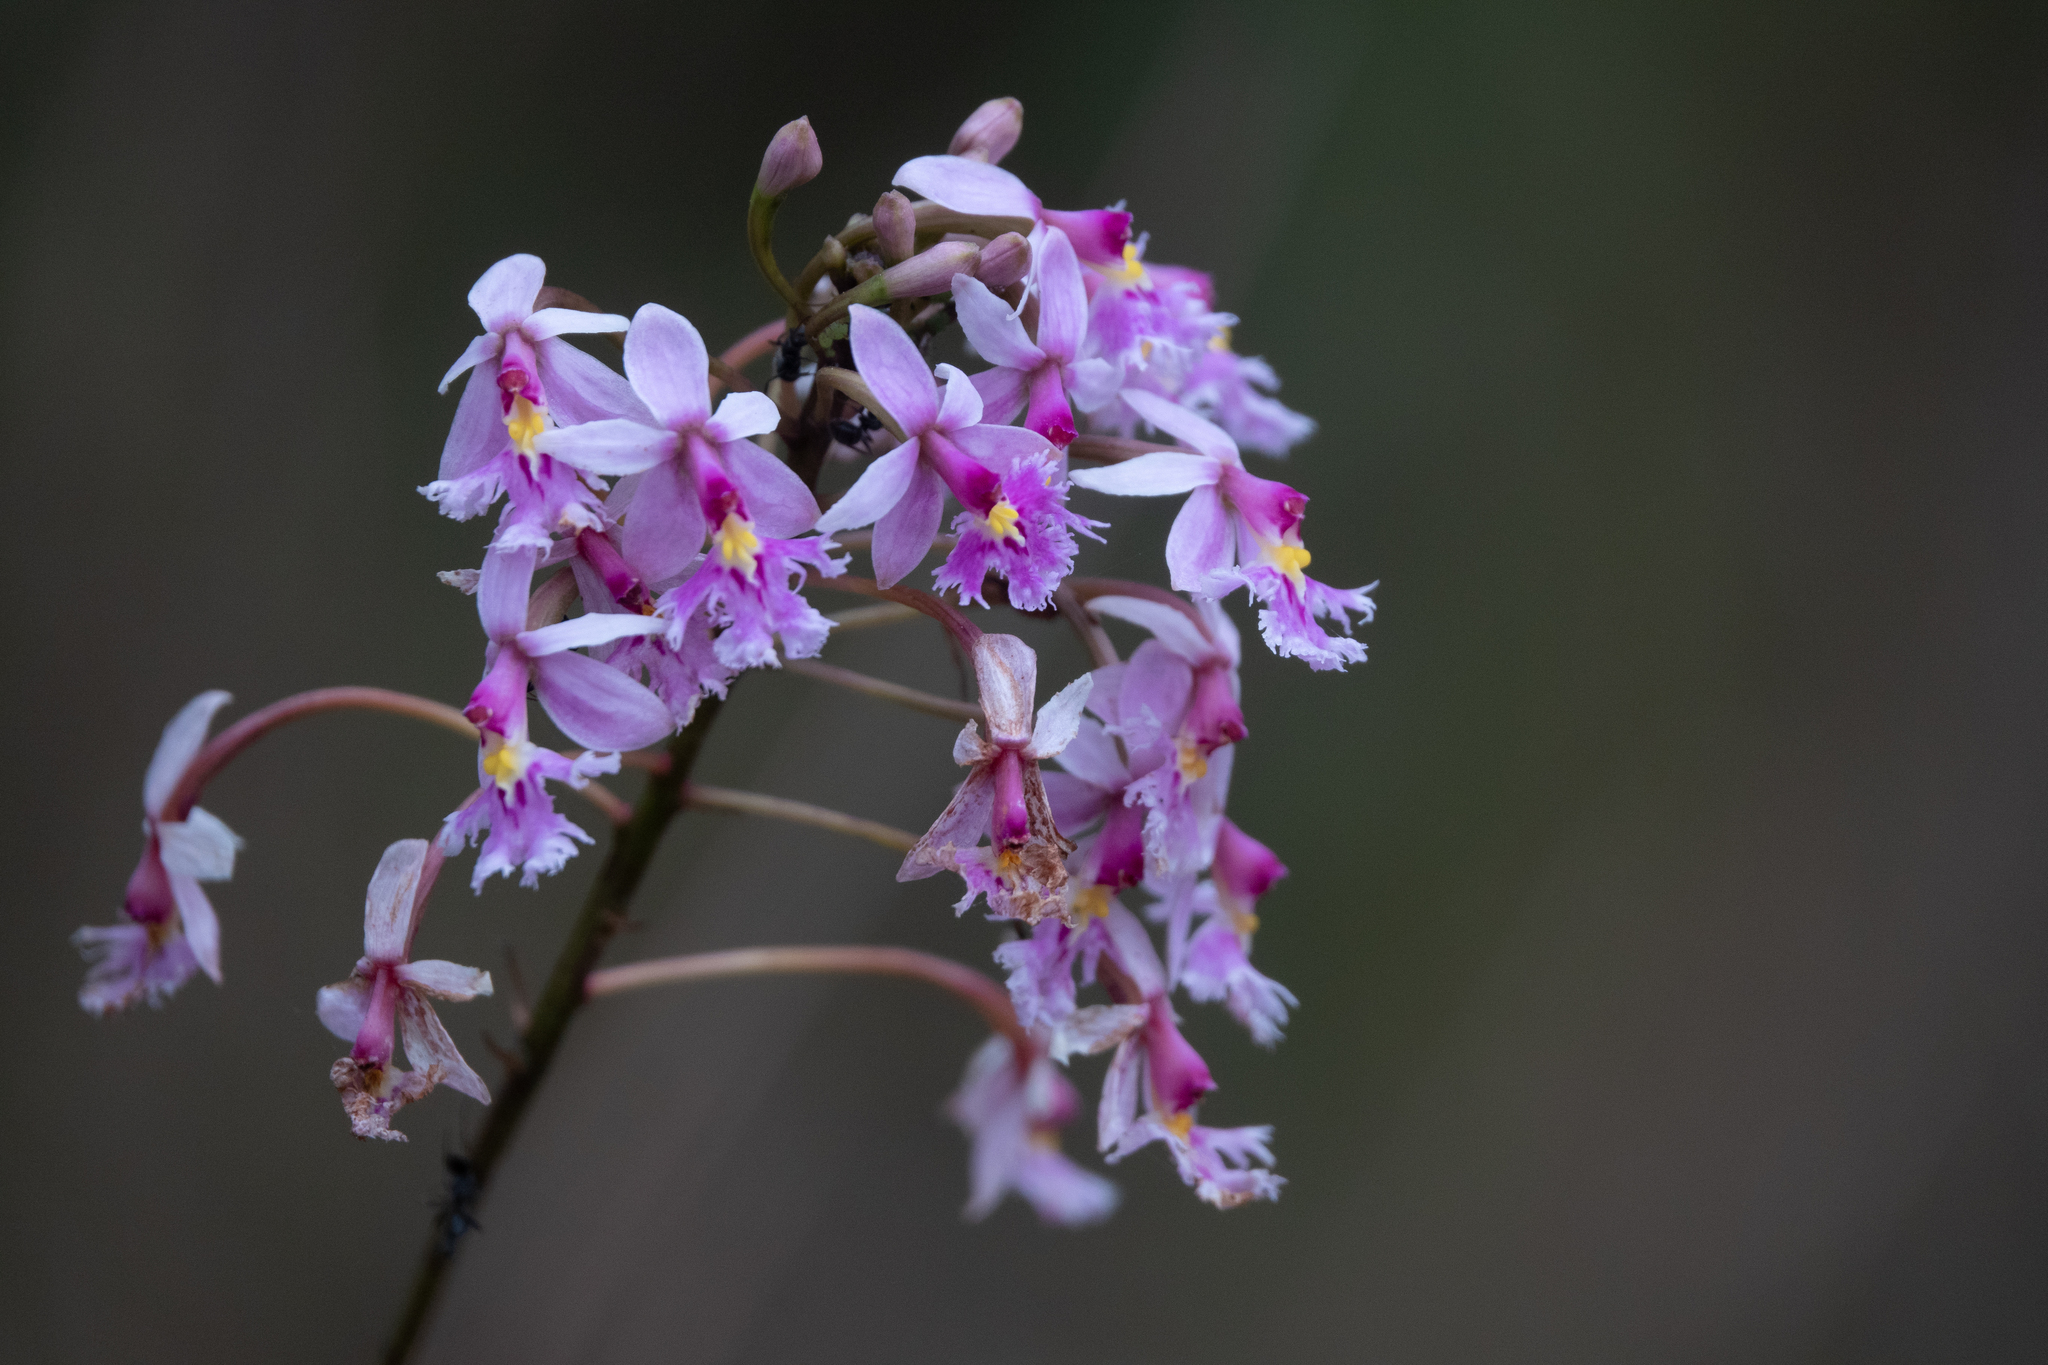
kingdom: Plantae
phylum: Tracheophyta
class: Liliopsida
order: Asparagales
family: Orchidaceae
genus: Epidendrum
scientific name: Epidendrum calanthum
